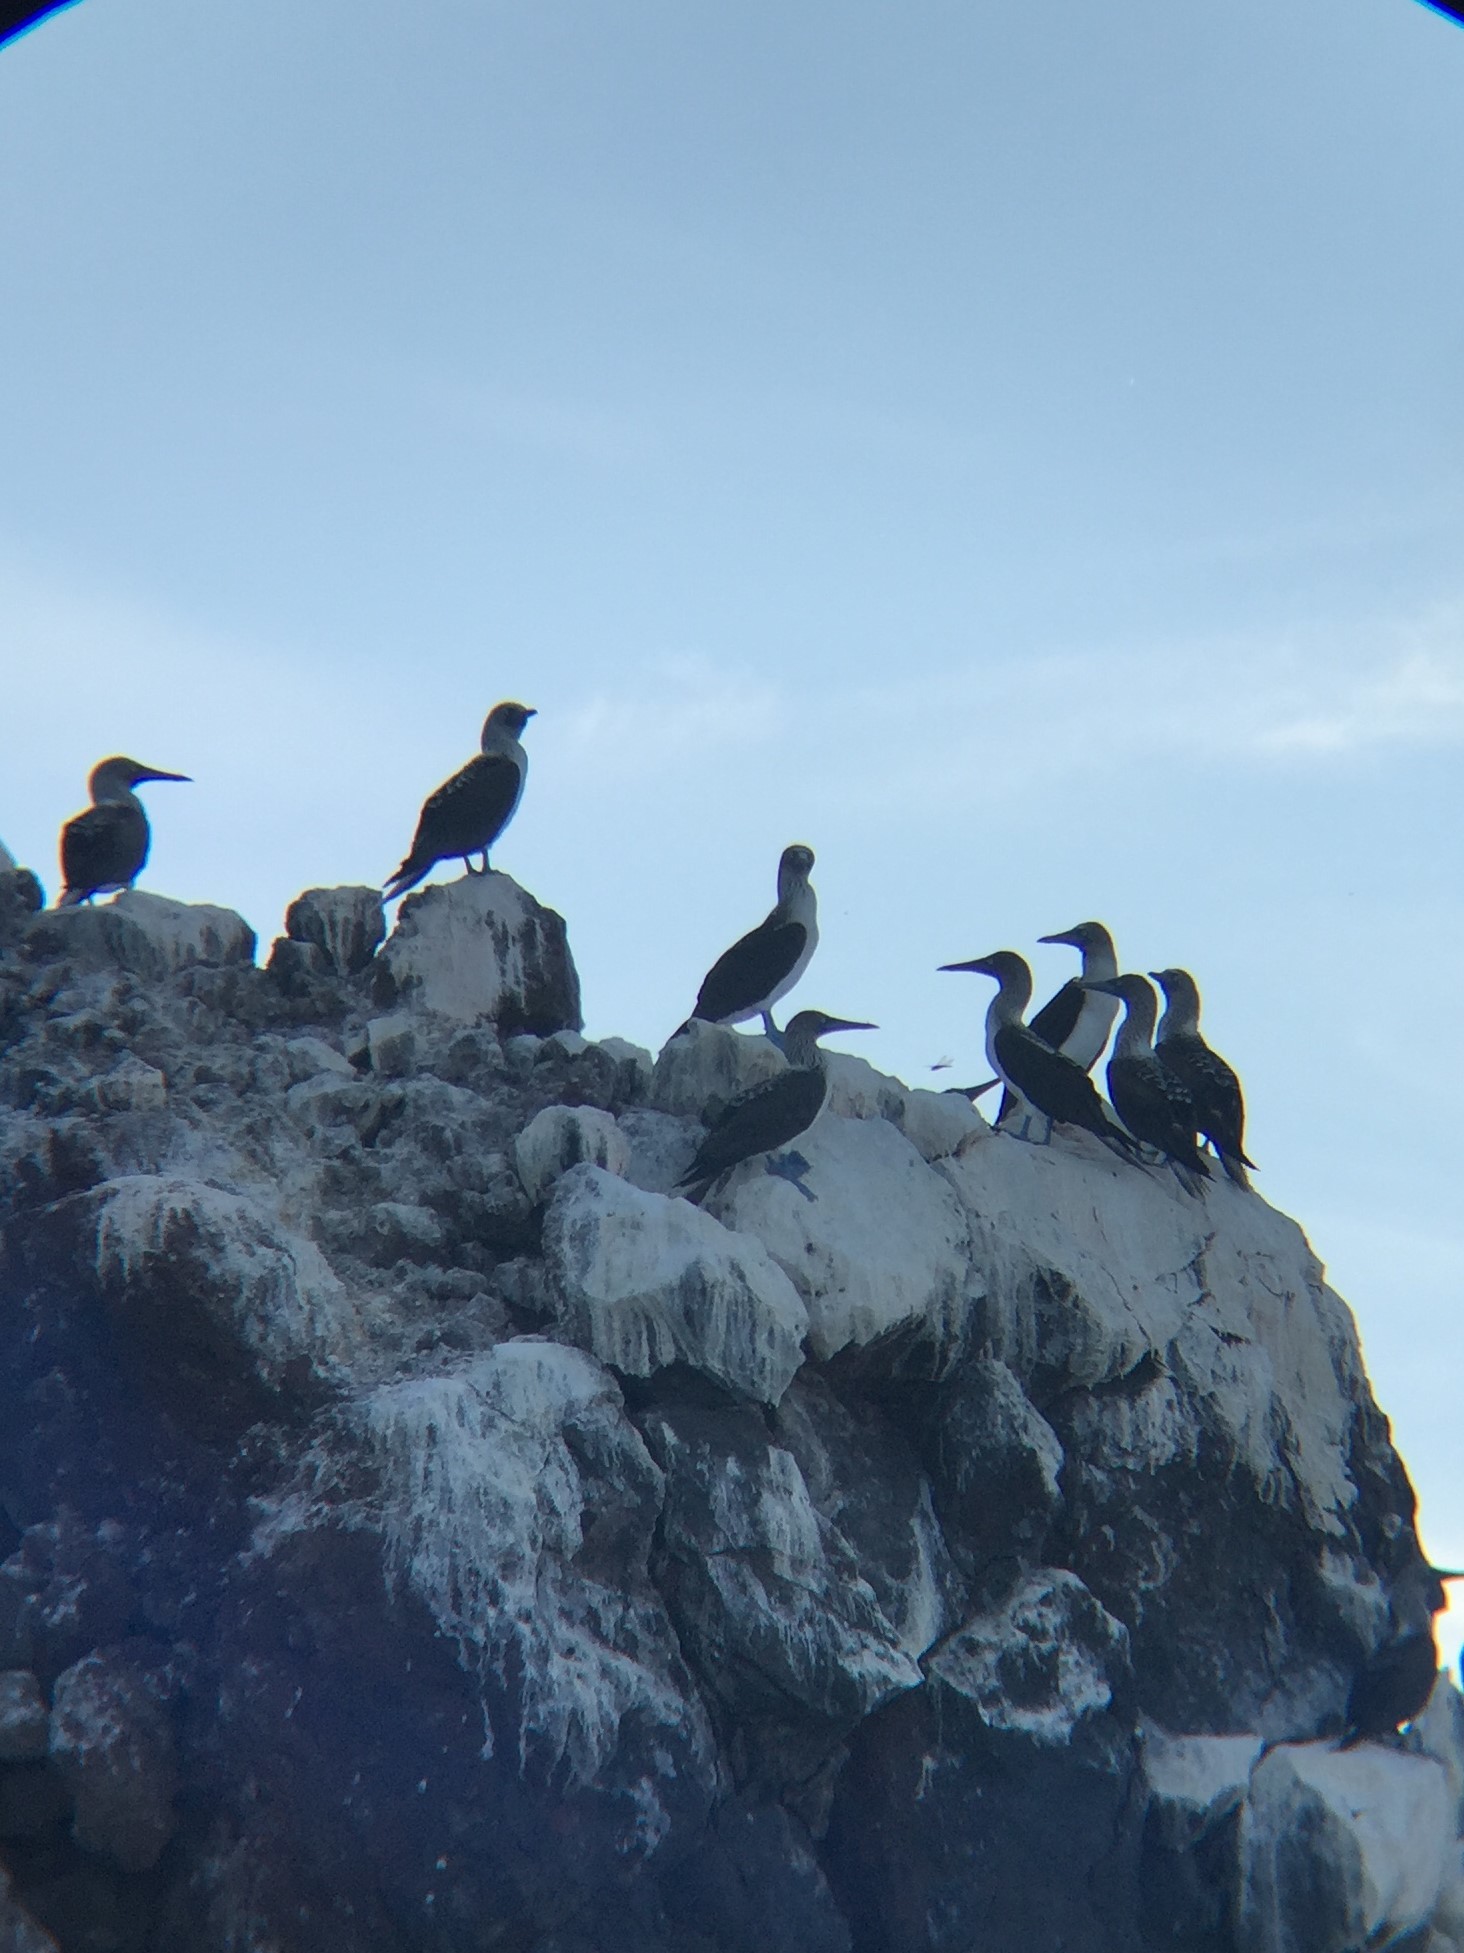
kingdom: Animalia
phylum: Chordata
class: Aves
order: Suliformes
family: Sulidae
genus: Sula
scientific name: Sula nebouxii
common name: Blue-footed booby
